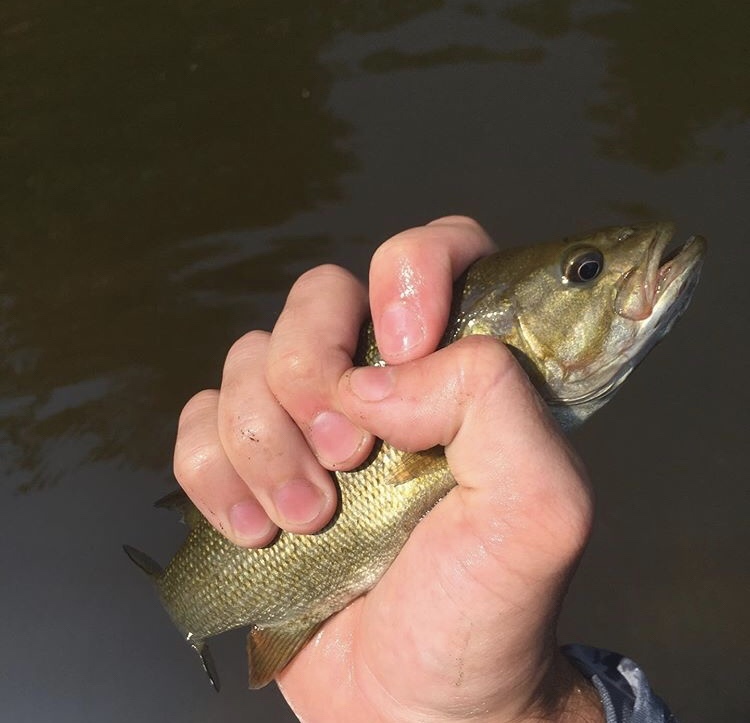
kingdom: Animalia
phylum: Chordata
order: Perciformes
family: Centrarchidae
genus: Micropterus
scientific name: Micropterus dolomieu
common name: Smallmouth bass
